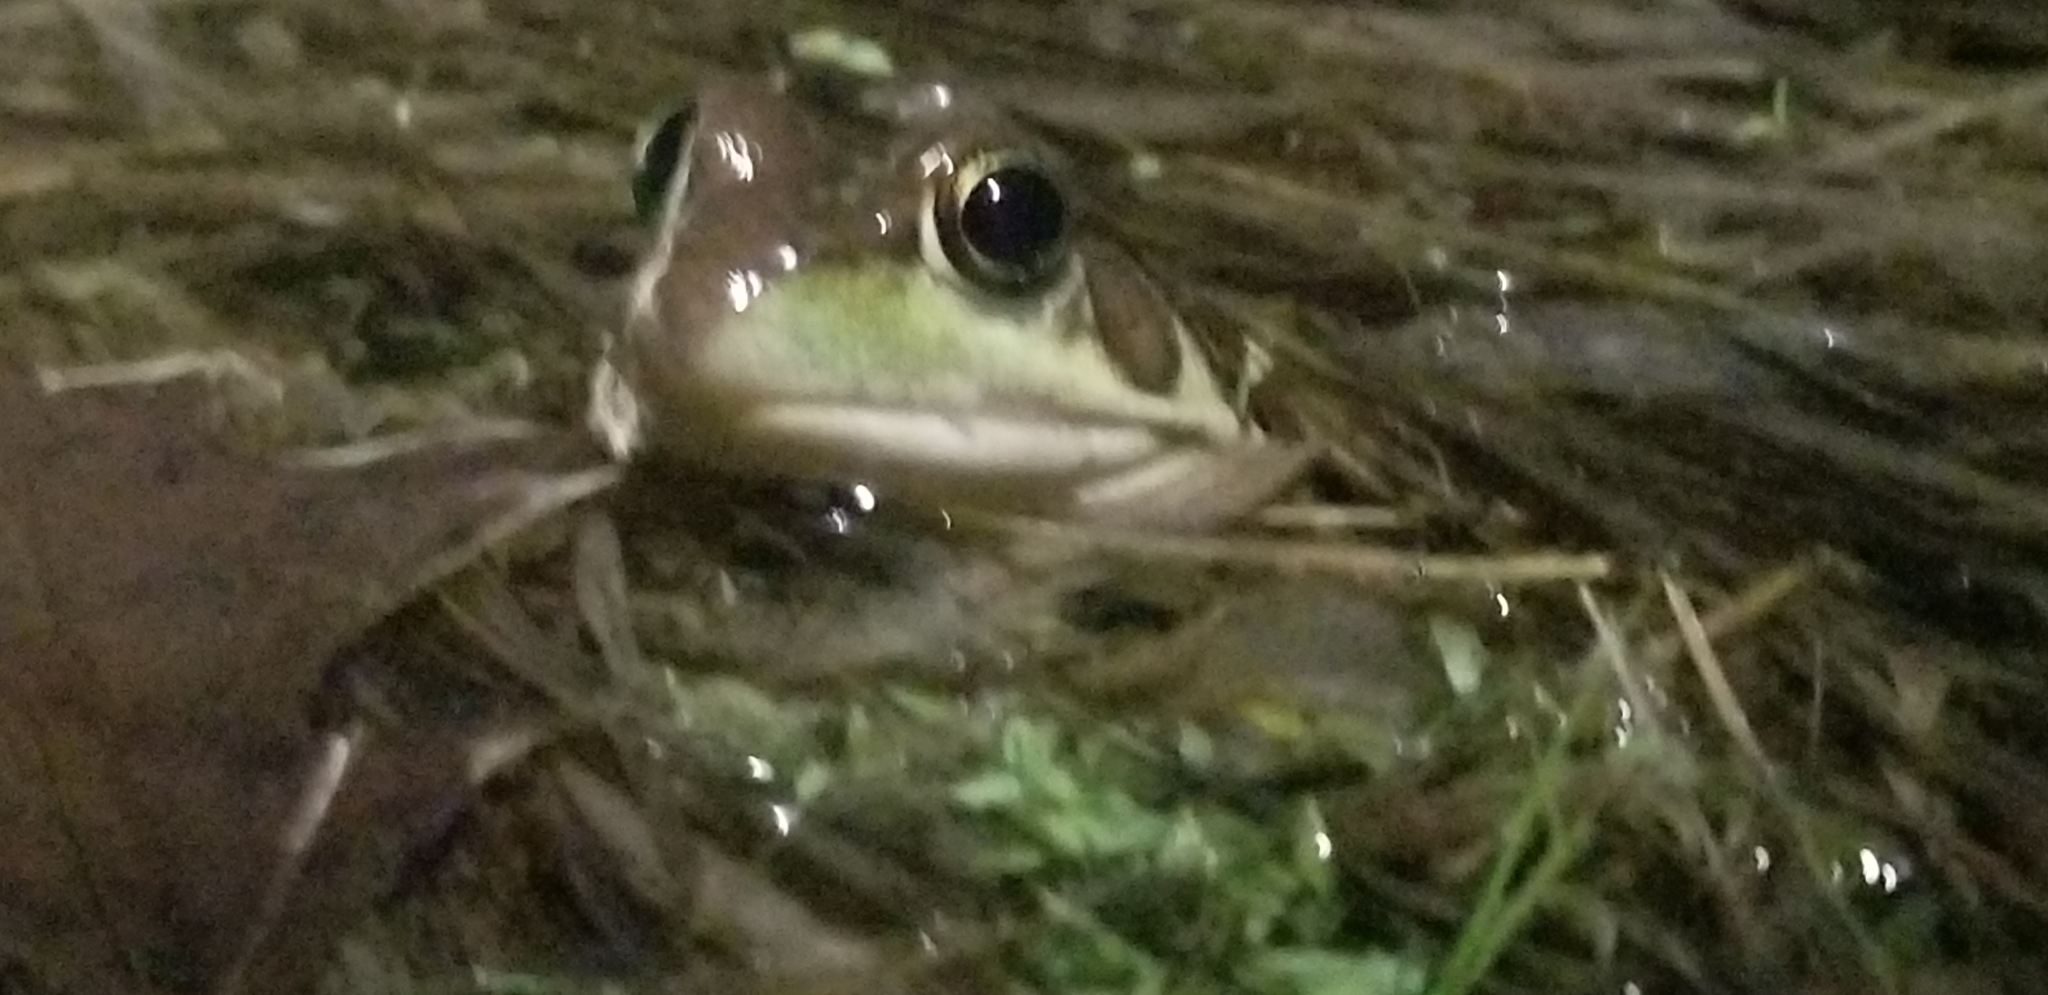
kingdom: Animalia
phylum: Chordata
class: Amphibia
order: Anura
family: Ranidae
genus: Lithobates
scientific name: Lithobates clamitans
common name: Green frog
